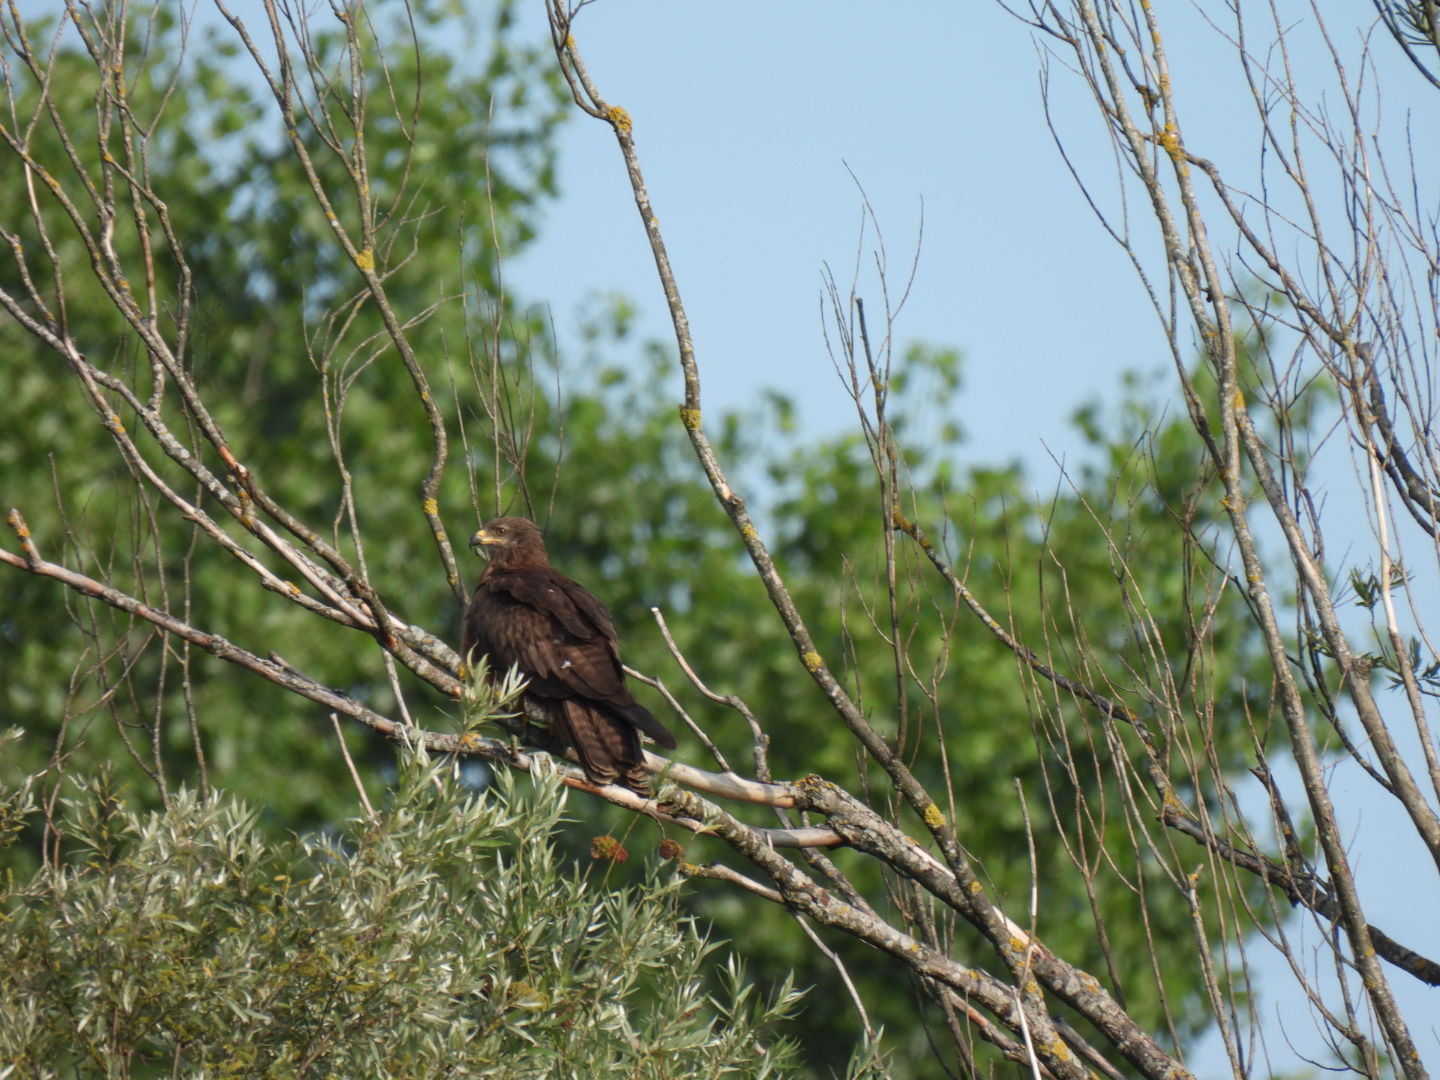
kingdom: Animalia
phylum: Chordata
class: Aves
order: Accipitriformes
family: Accipitridae
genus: Milvus
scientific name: Milvus migrans
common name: Black kite
